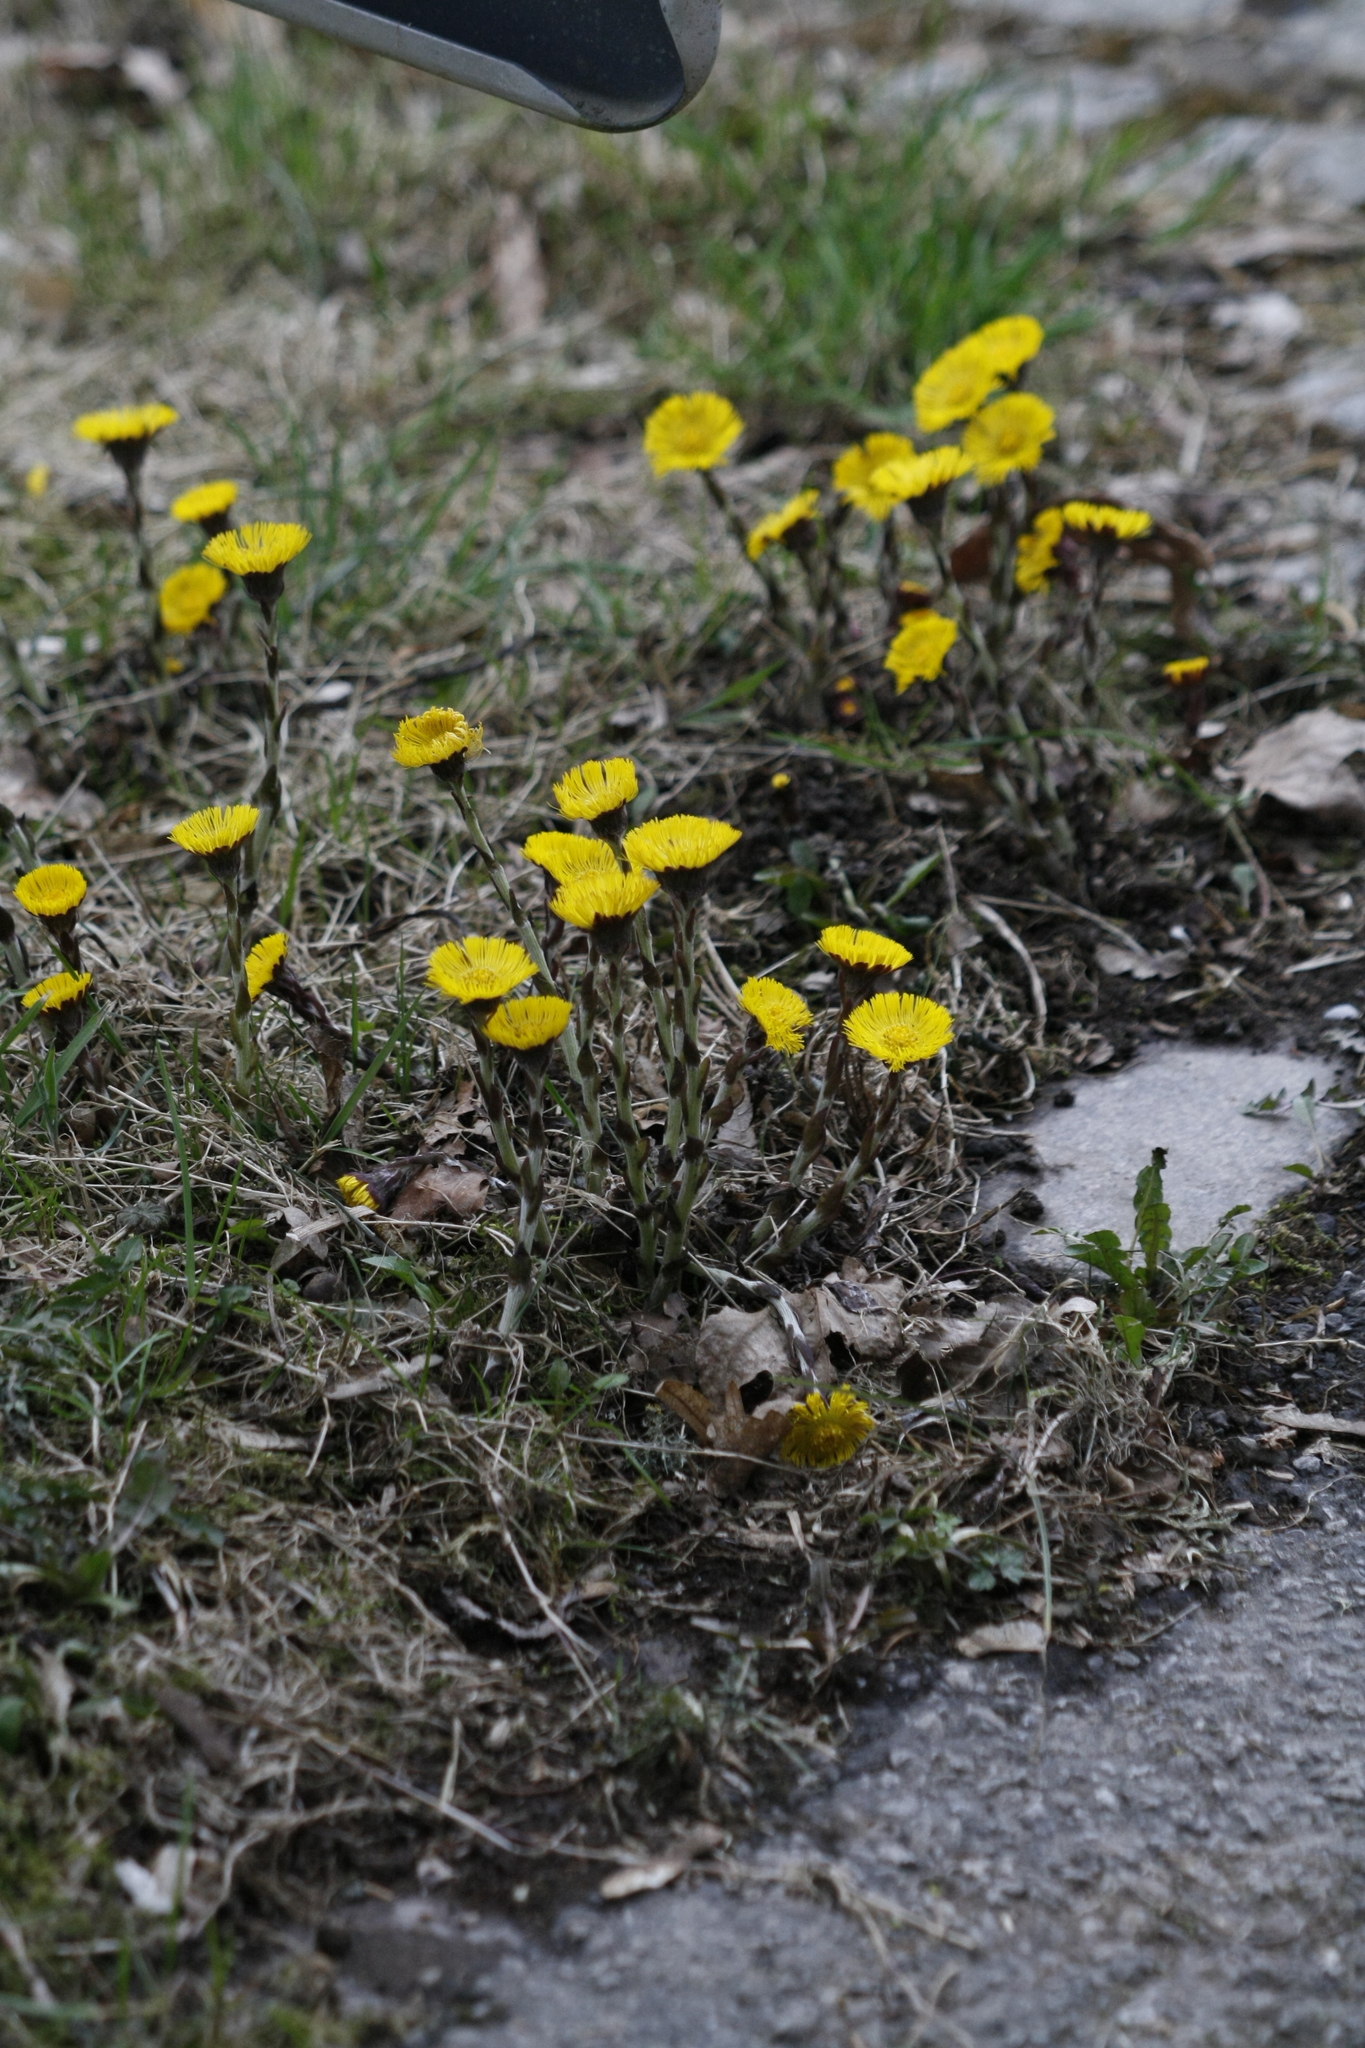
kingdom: Plantae
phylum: Tracheophyta
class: Magnoliopsida
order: Asterales
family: Asteraceae
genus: Tussilago
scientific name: Tussilago farfara
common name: Coltsfoot
